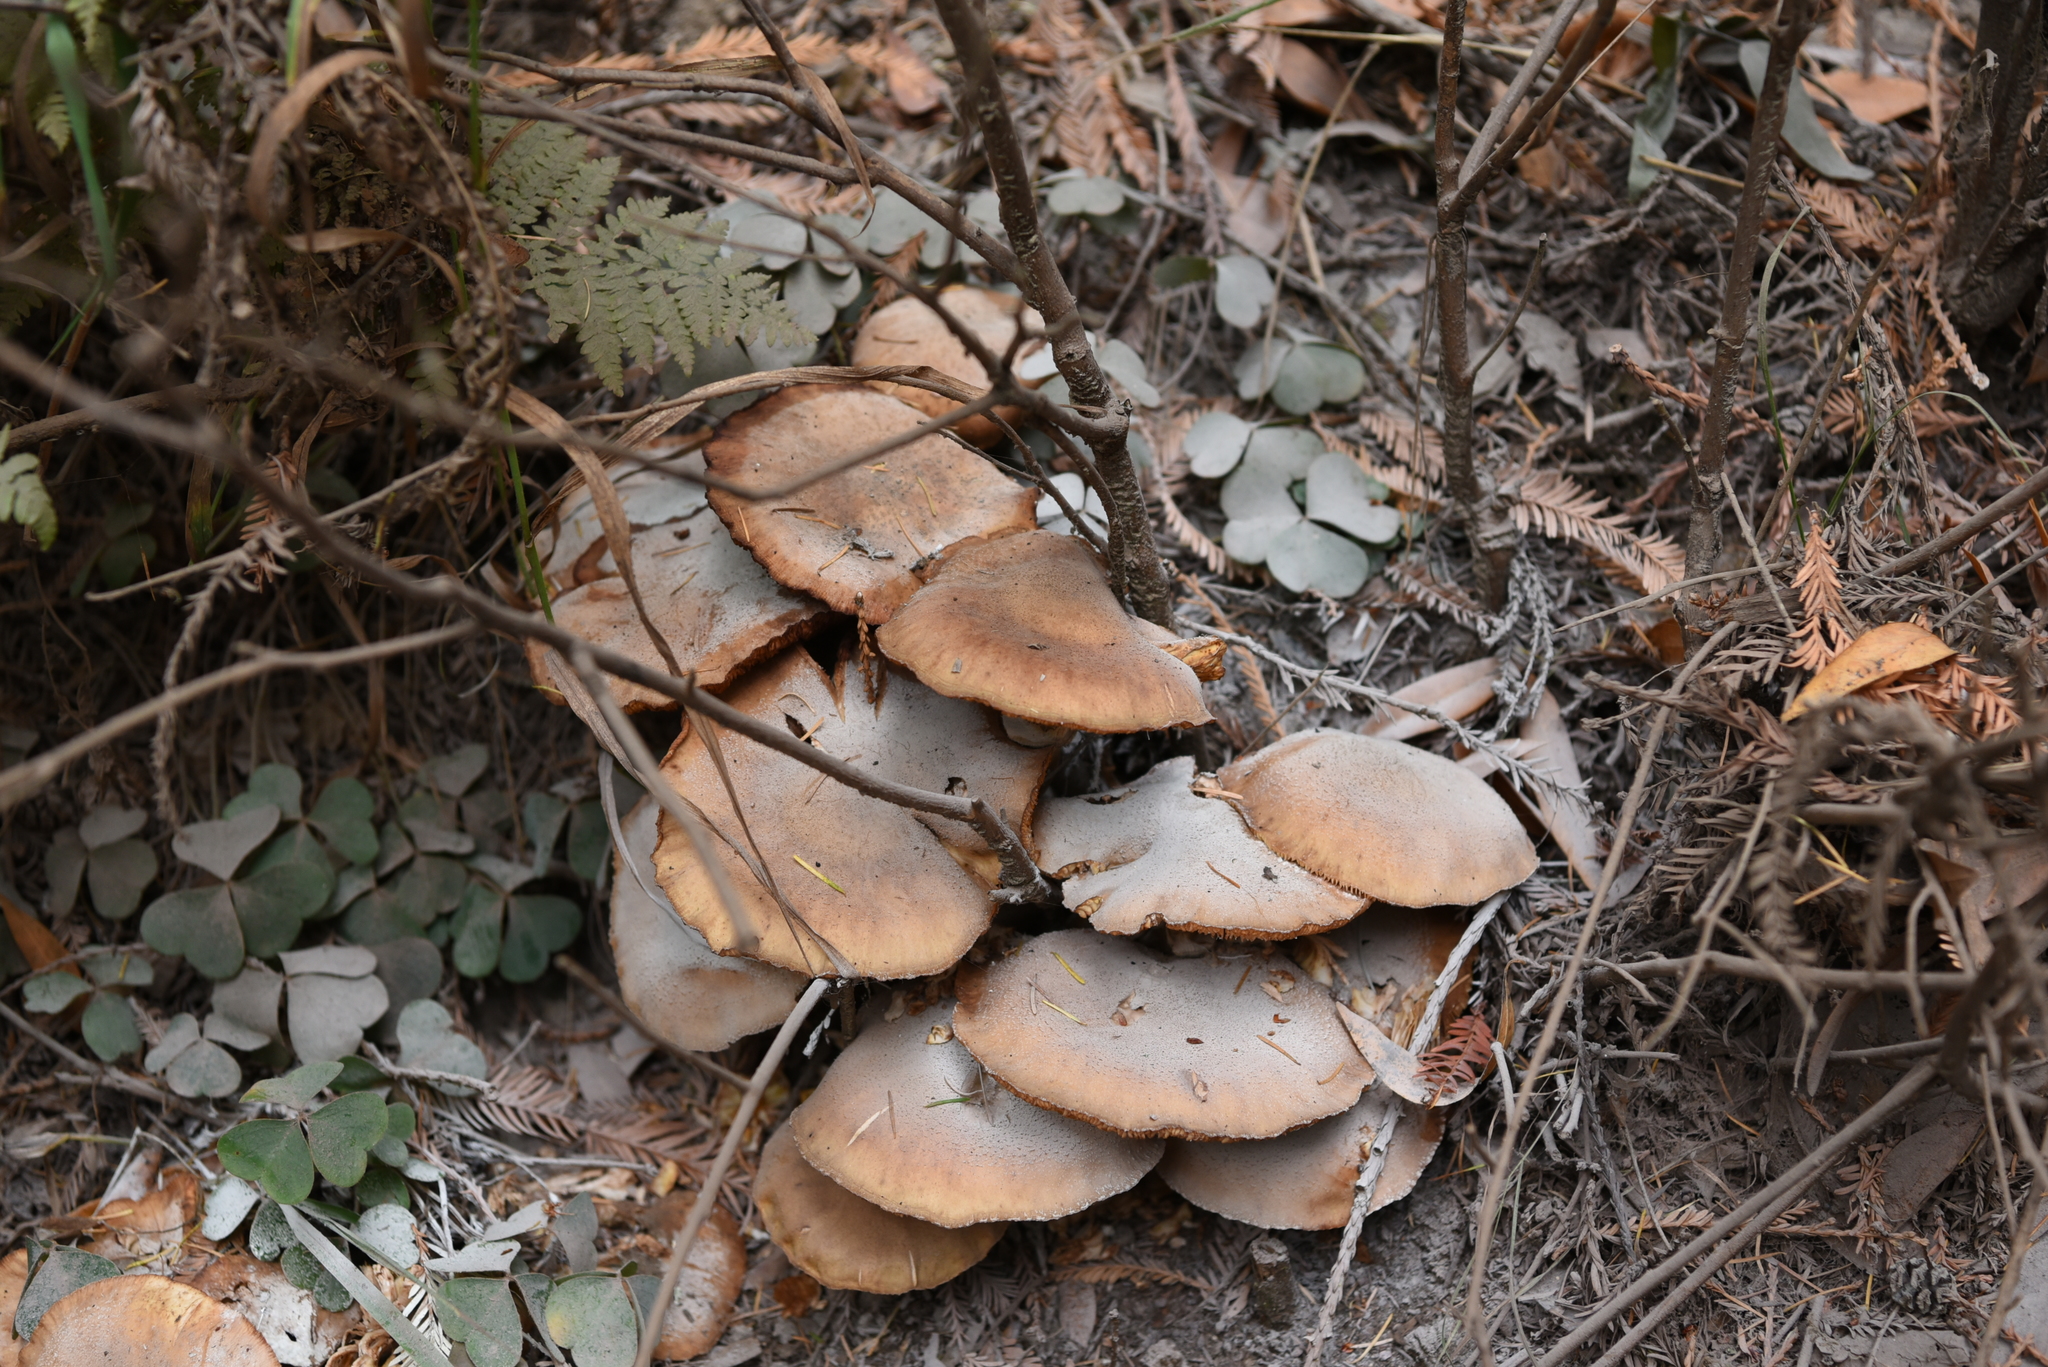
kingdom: Fungi
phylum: Basidiomycota
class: Agaricomycetes
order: Agaricales
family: Physalacriaceae
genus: Armillaria
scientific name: Armillaria mellea
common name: Honey fungus
